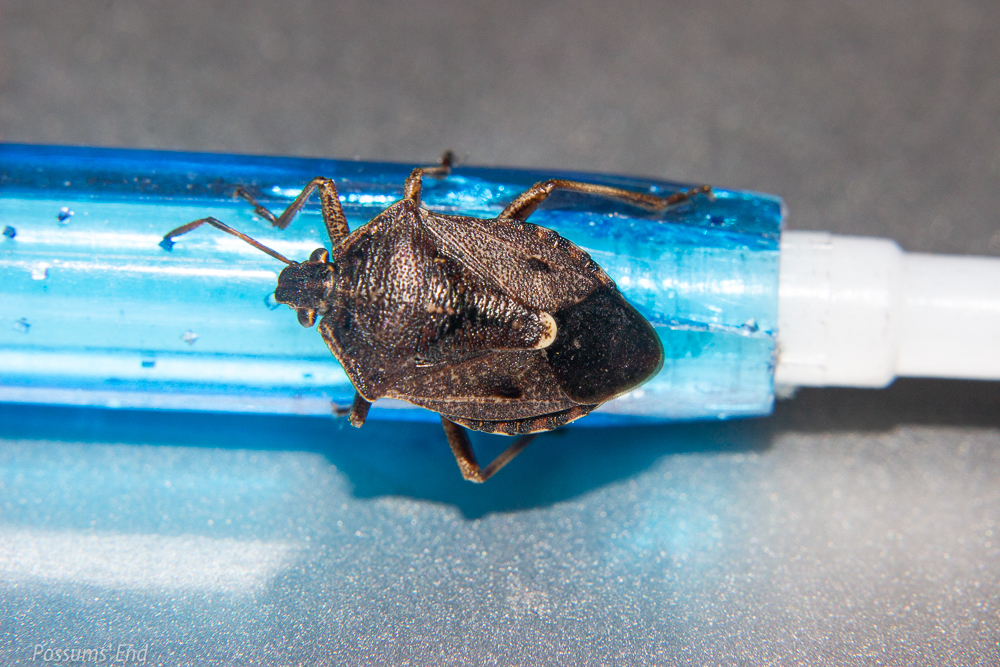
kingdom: Animalia
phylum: Arthropoda
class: Insecta
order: Hemiptera
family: Pentatomidae
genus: Cermatulus
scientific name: Cermatulus nasalis
